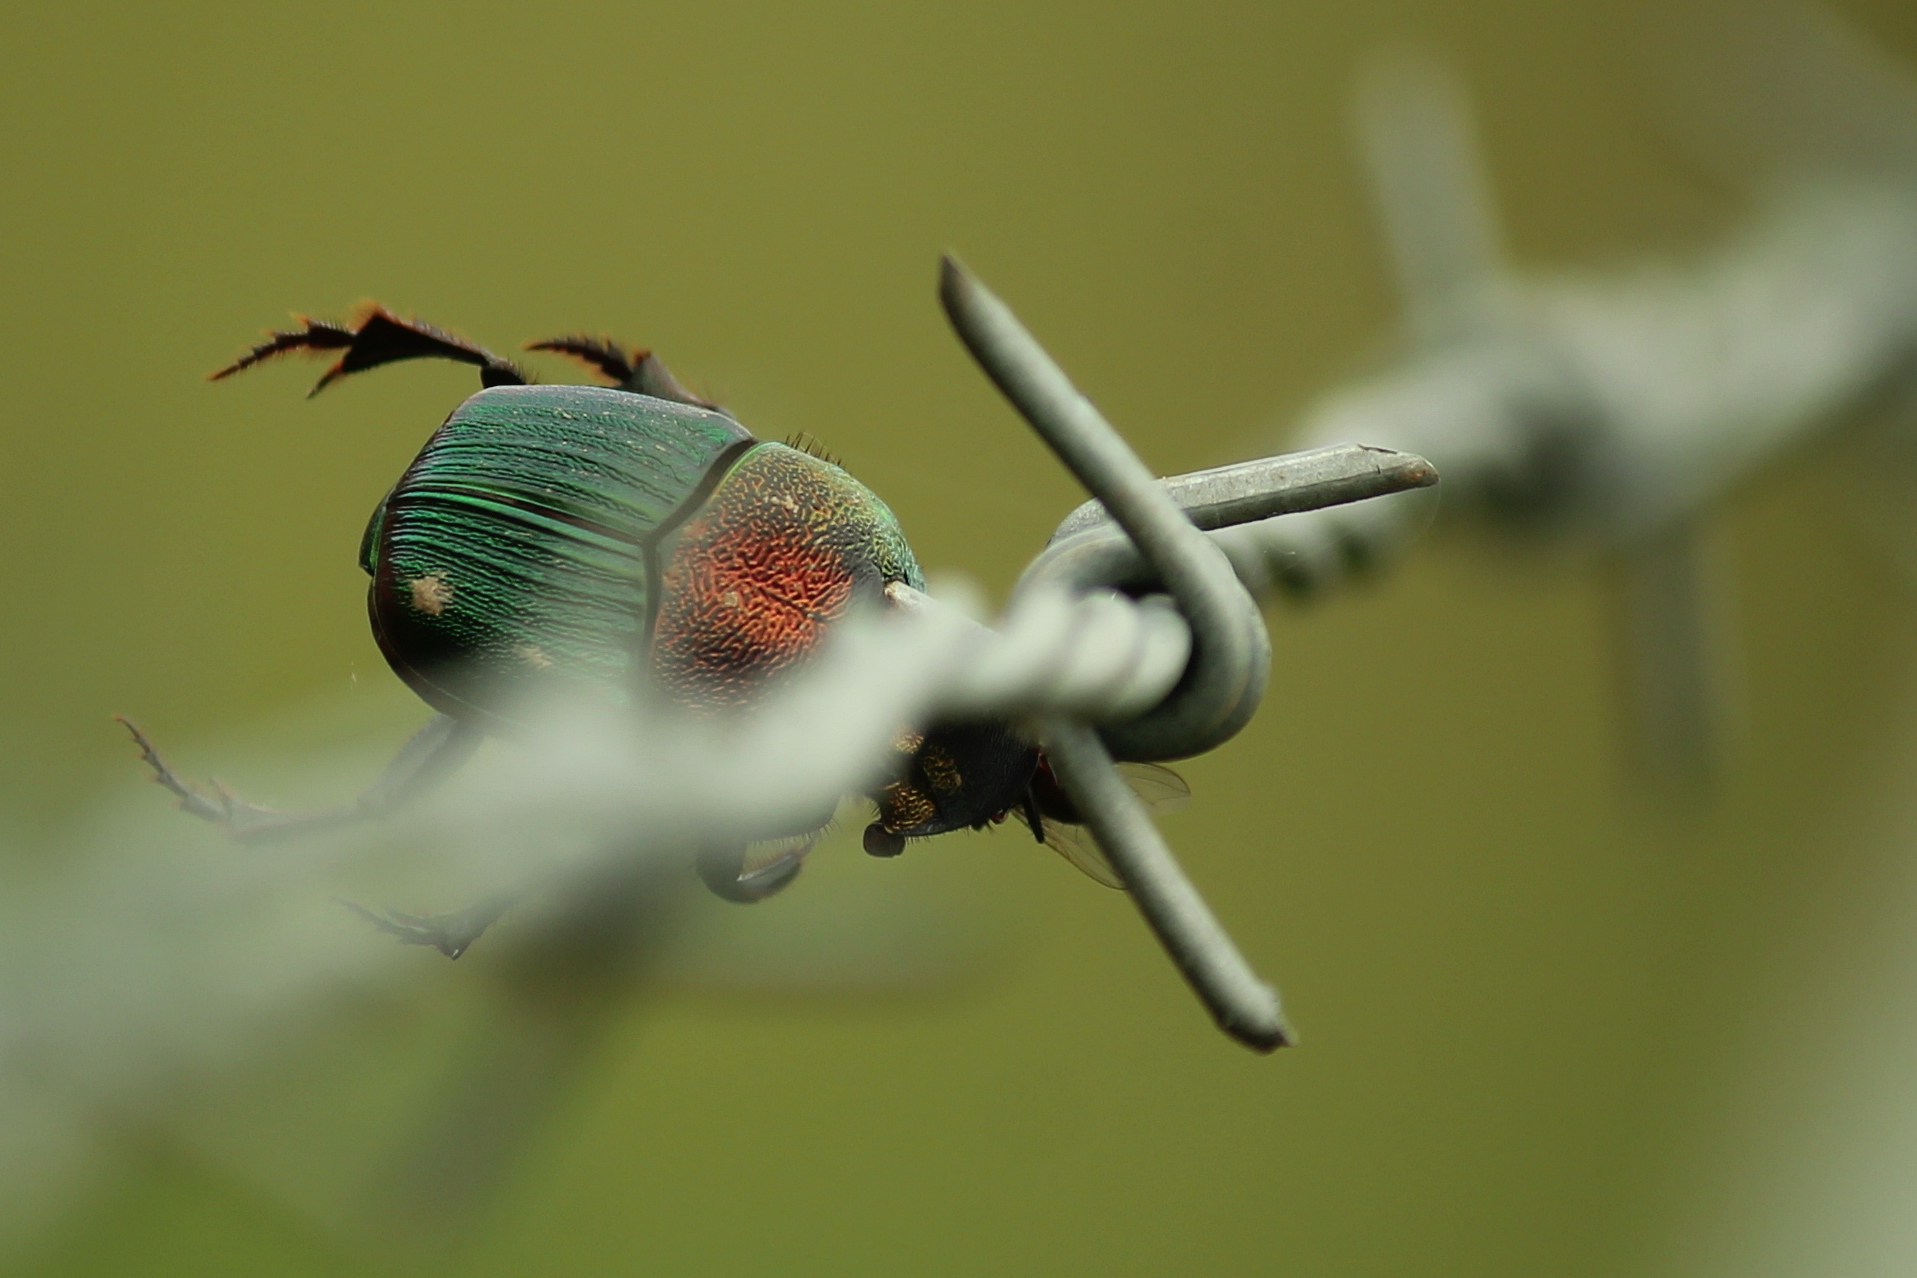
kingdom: Animalia
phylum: Arthropoda
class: Insecta
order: Coleoptera
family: Scarabaeidae
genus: Phanaeus
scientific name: Phanaeus vindex
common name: Rainbow scarab
